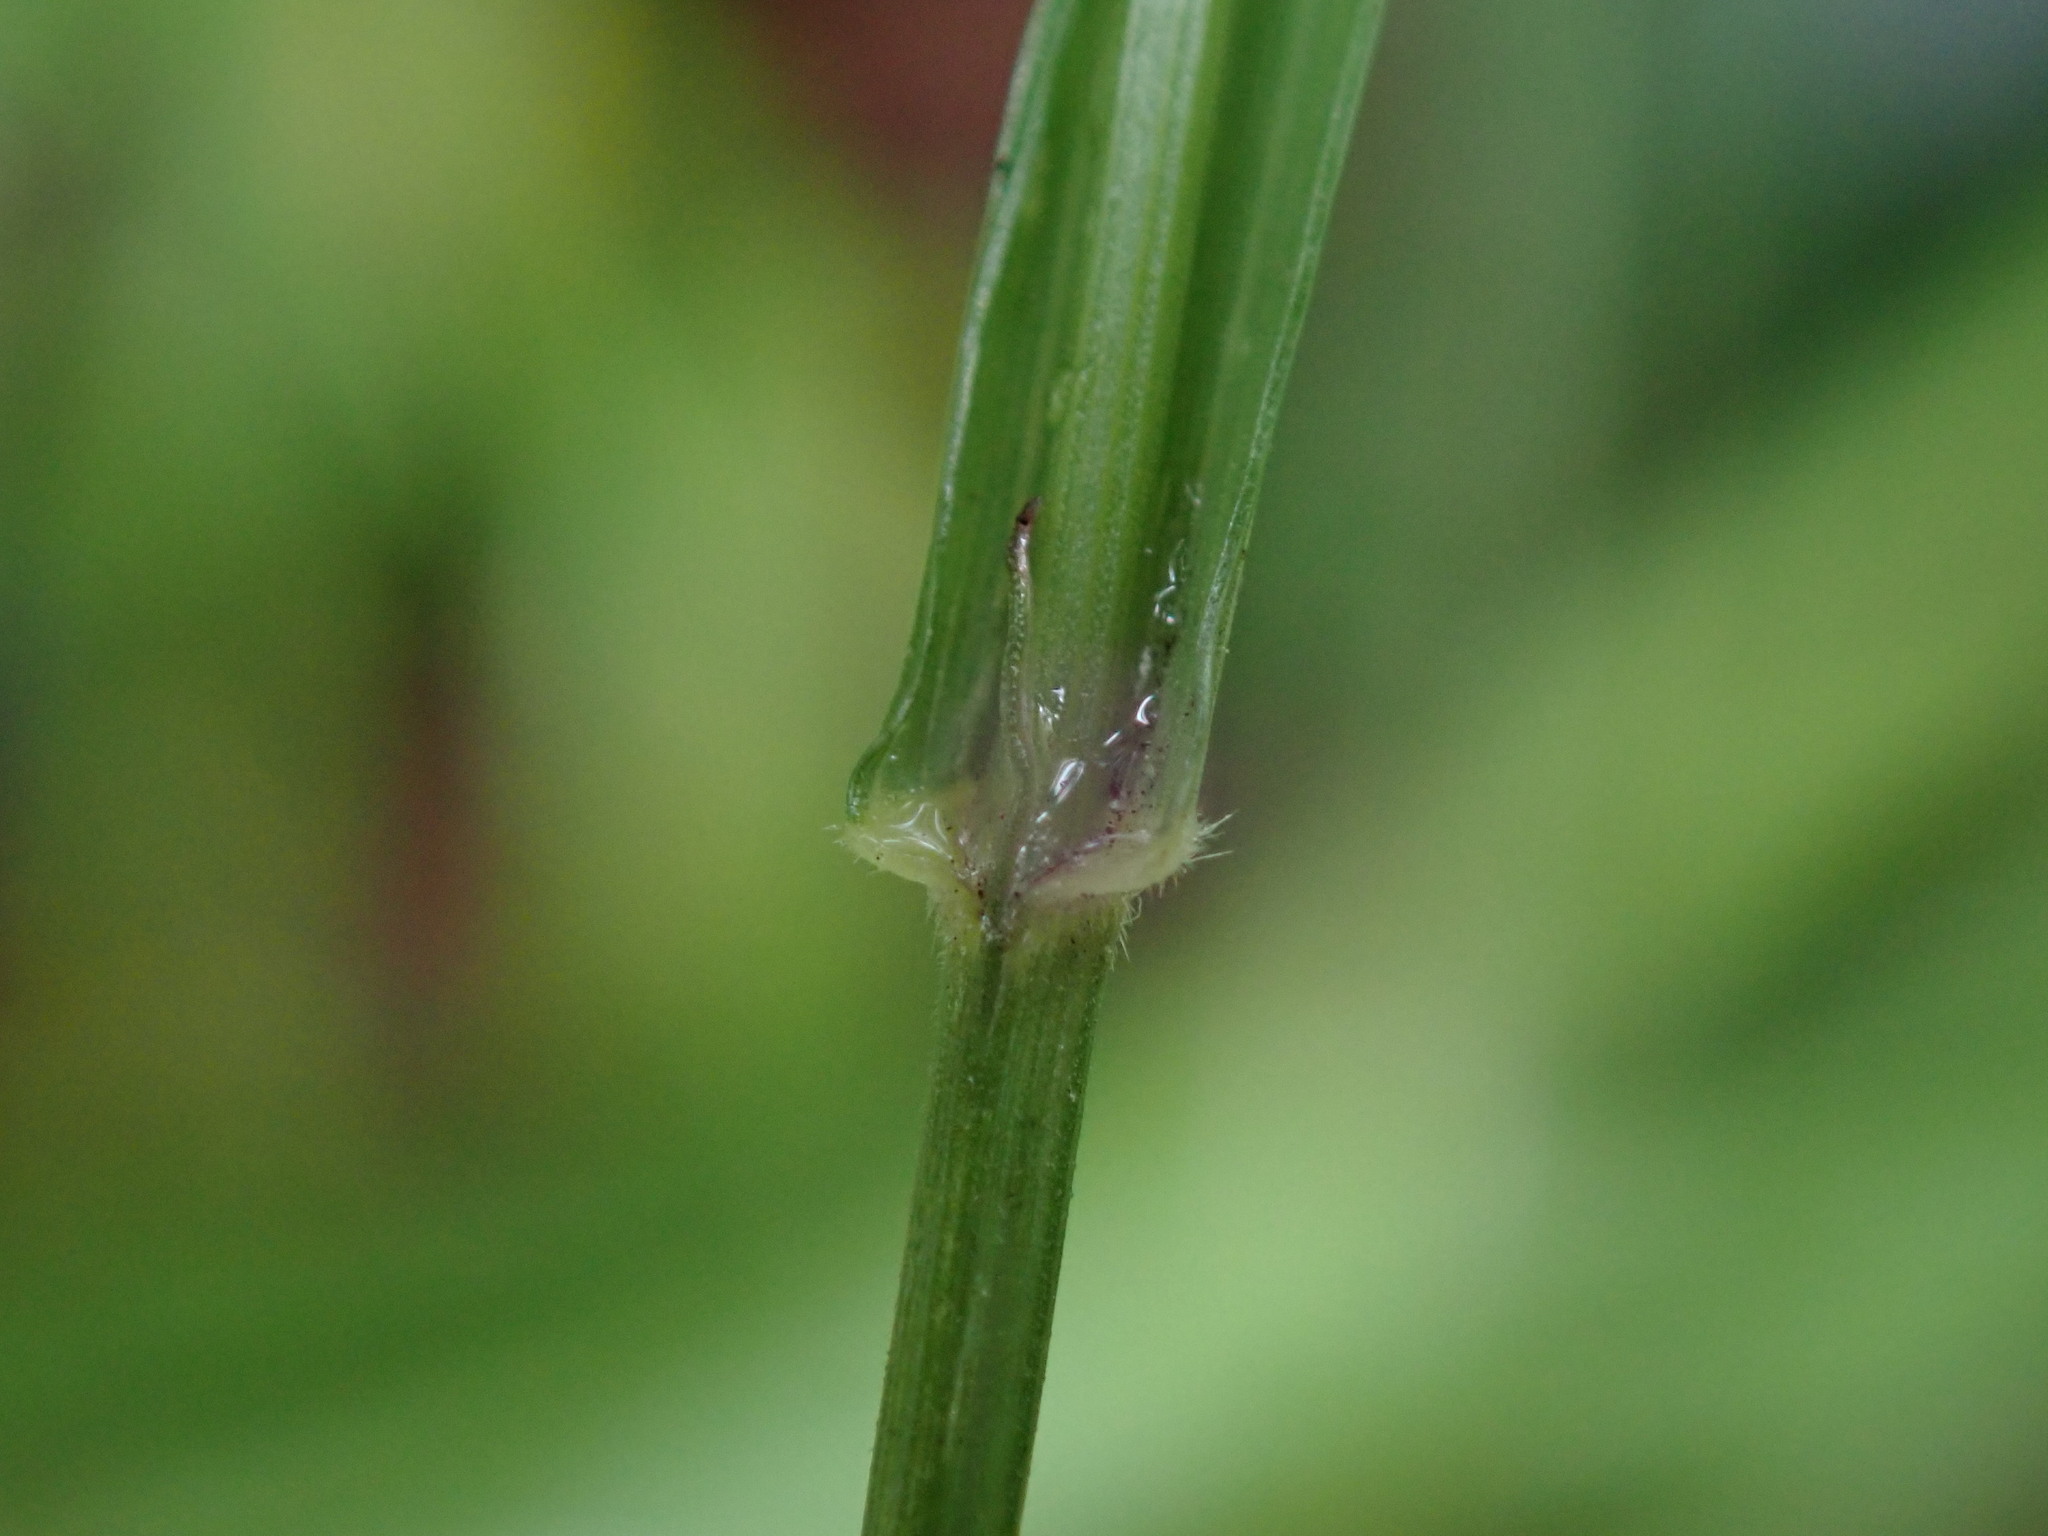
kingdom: Plantae
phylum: Tracheophyta
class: Liliopsida
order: Poales
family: Poaceae
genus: Melica
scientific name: Melica uniflora
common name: Wood melick
